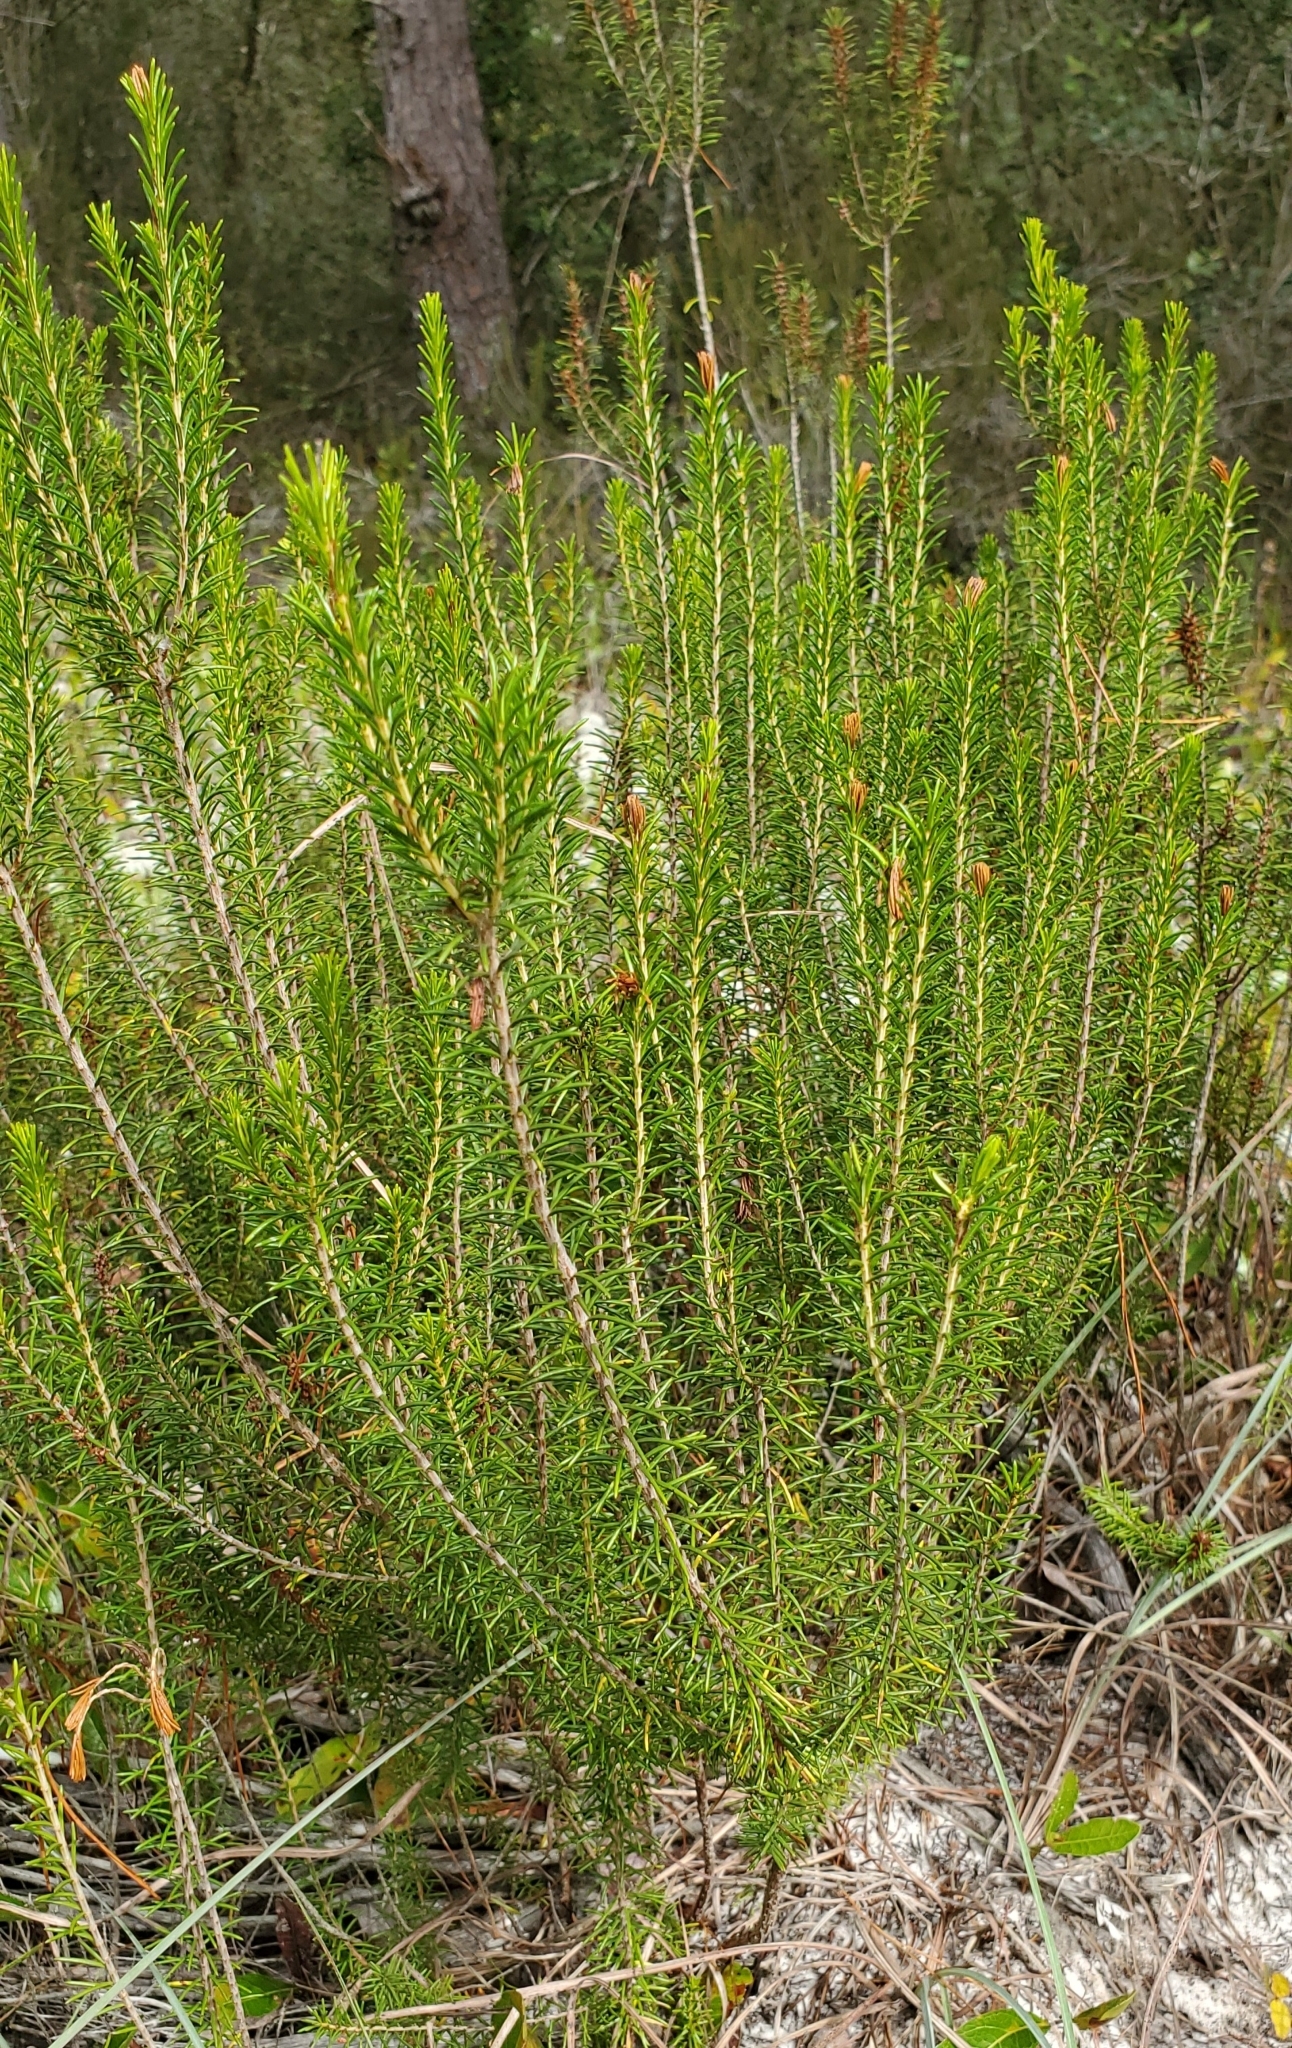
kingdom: Plantae
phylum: Tracheophyta
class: Magnoliopsida
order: Ericales
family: Ericaceae
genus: Ceratiola
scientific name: Ceratiola ericoides
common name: Sandhill-rosemary
